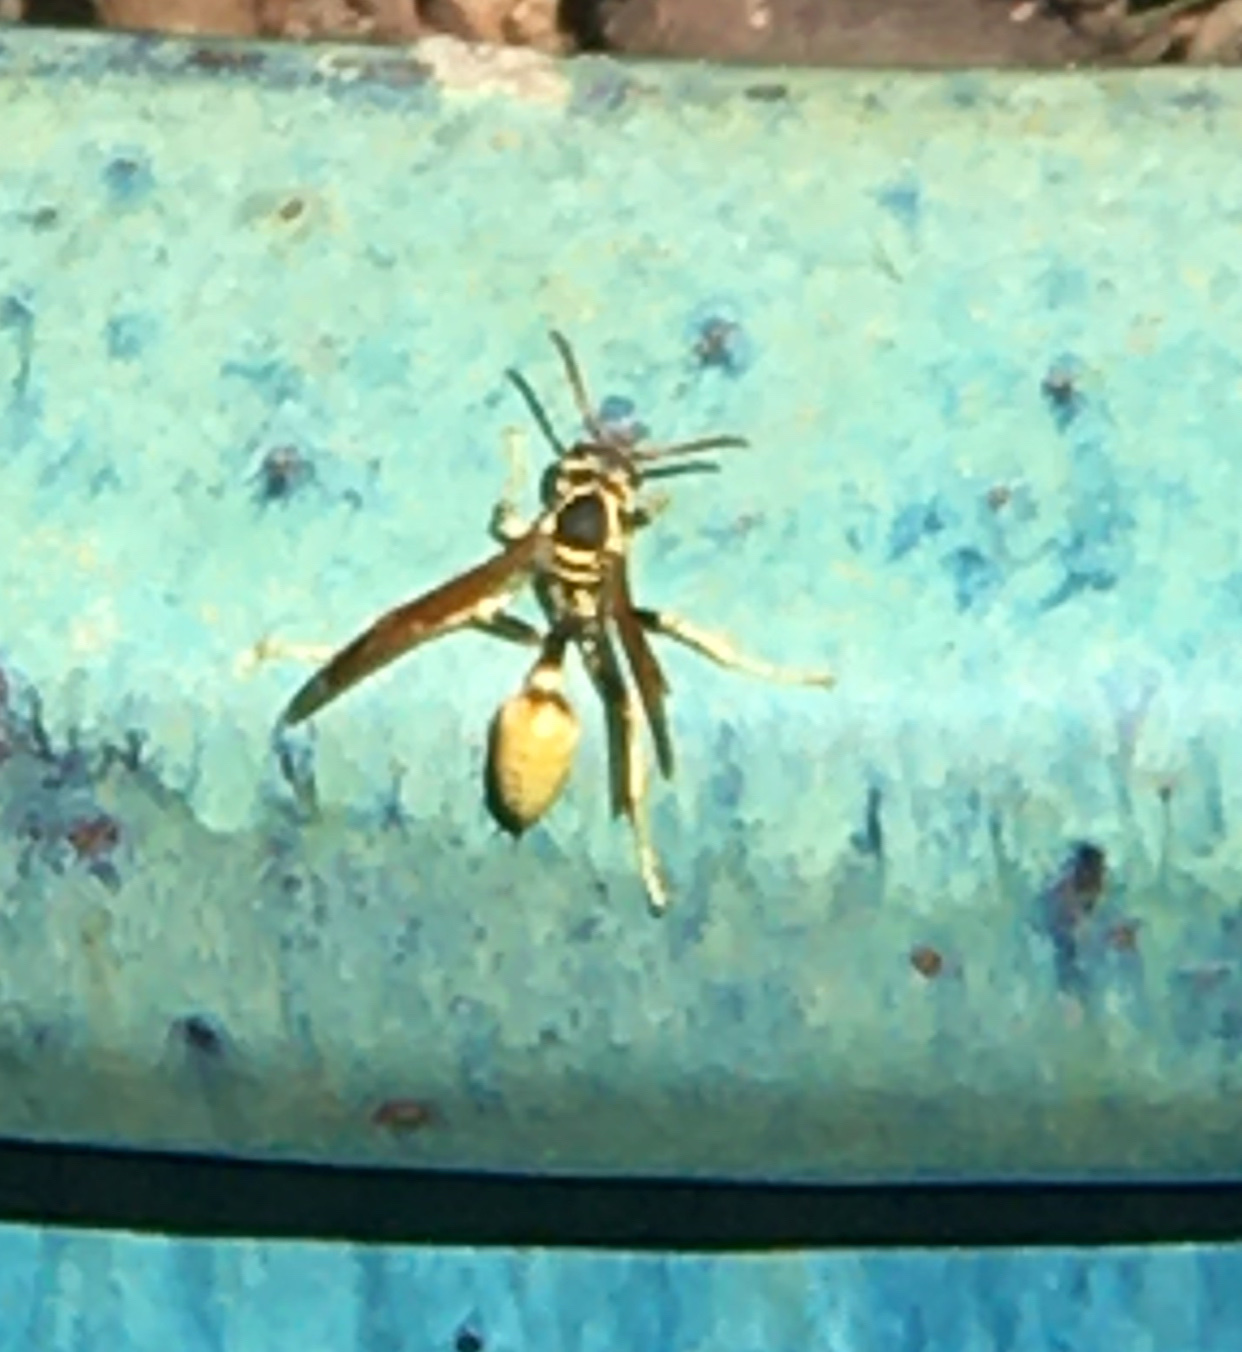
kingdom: Animalia
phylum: Arthropoda
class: Insecta
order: Hymenoptera
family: Vespidae
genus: Mischocyttarus
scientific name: Mischocyttarus flavitarsis
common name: Wasp
